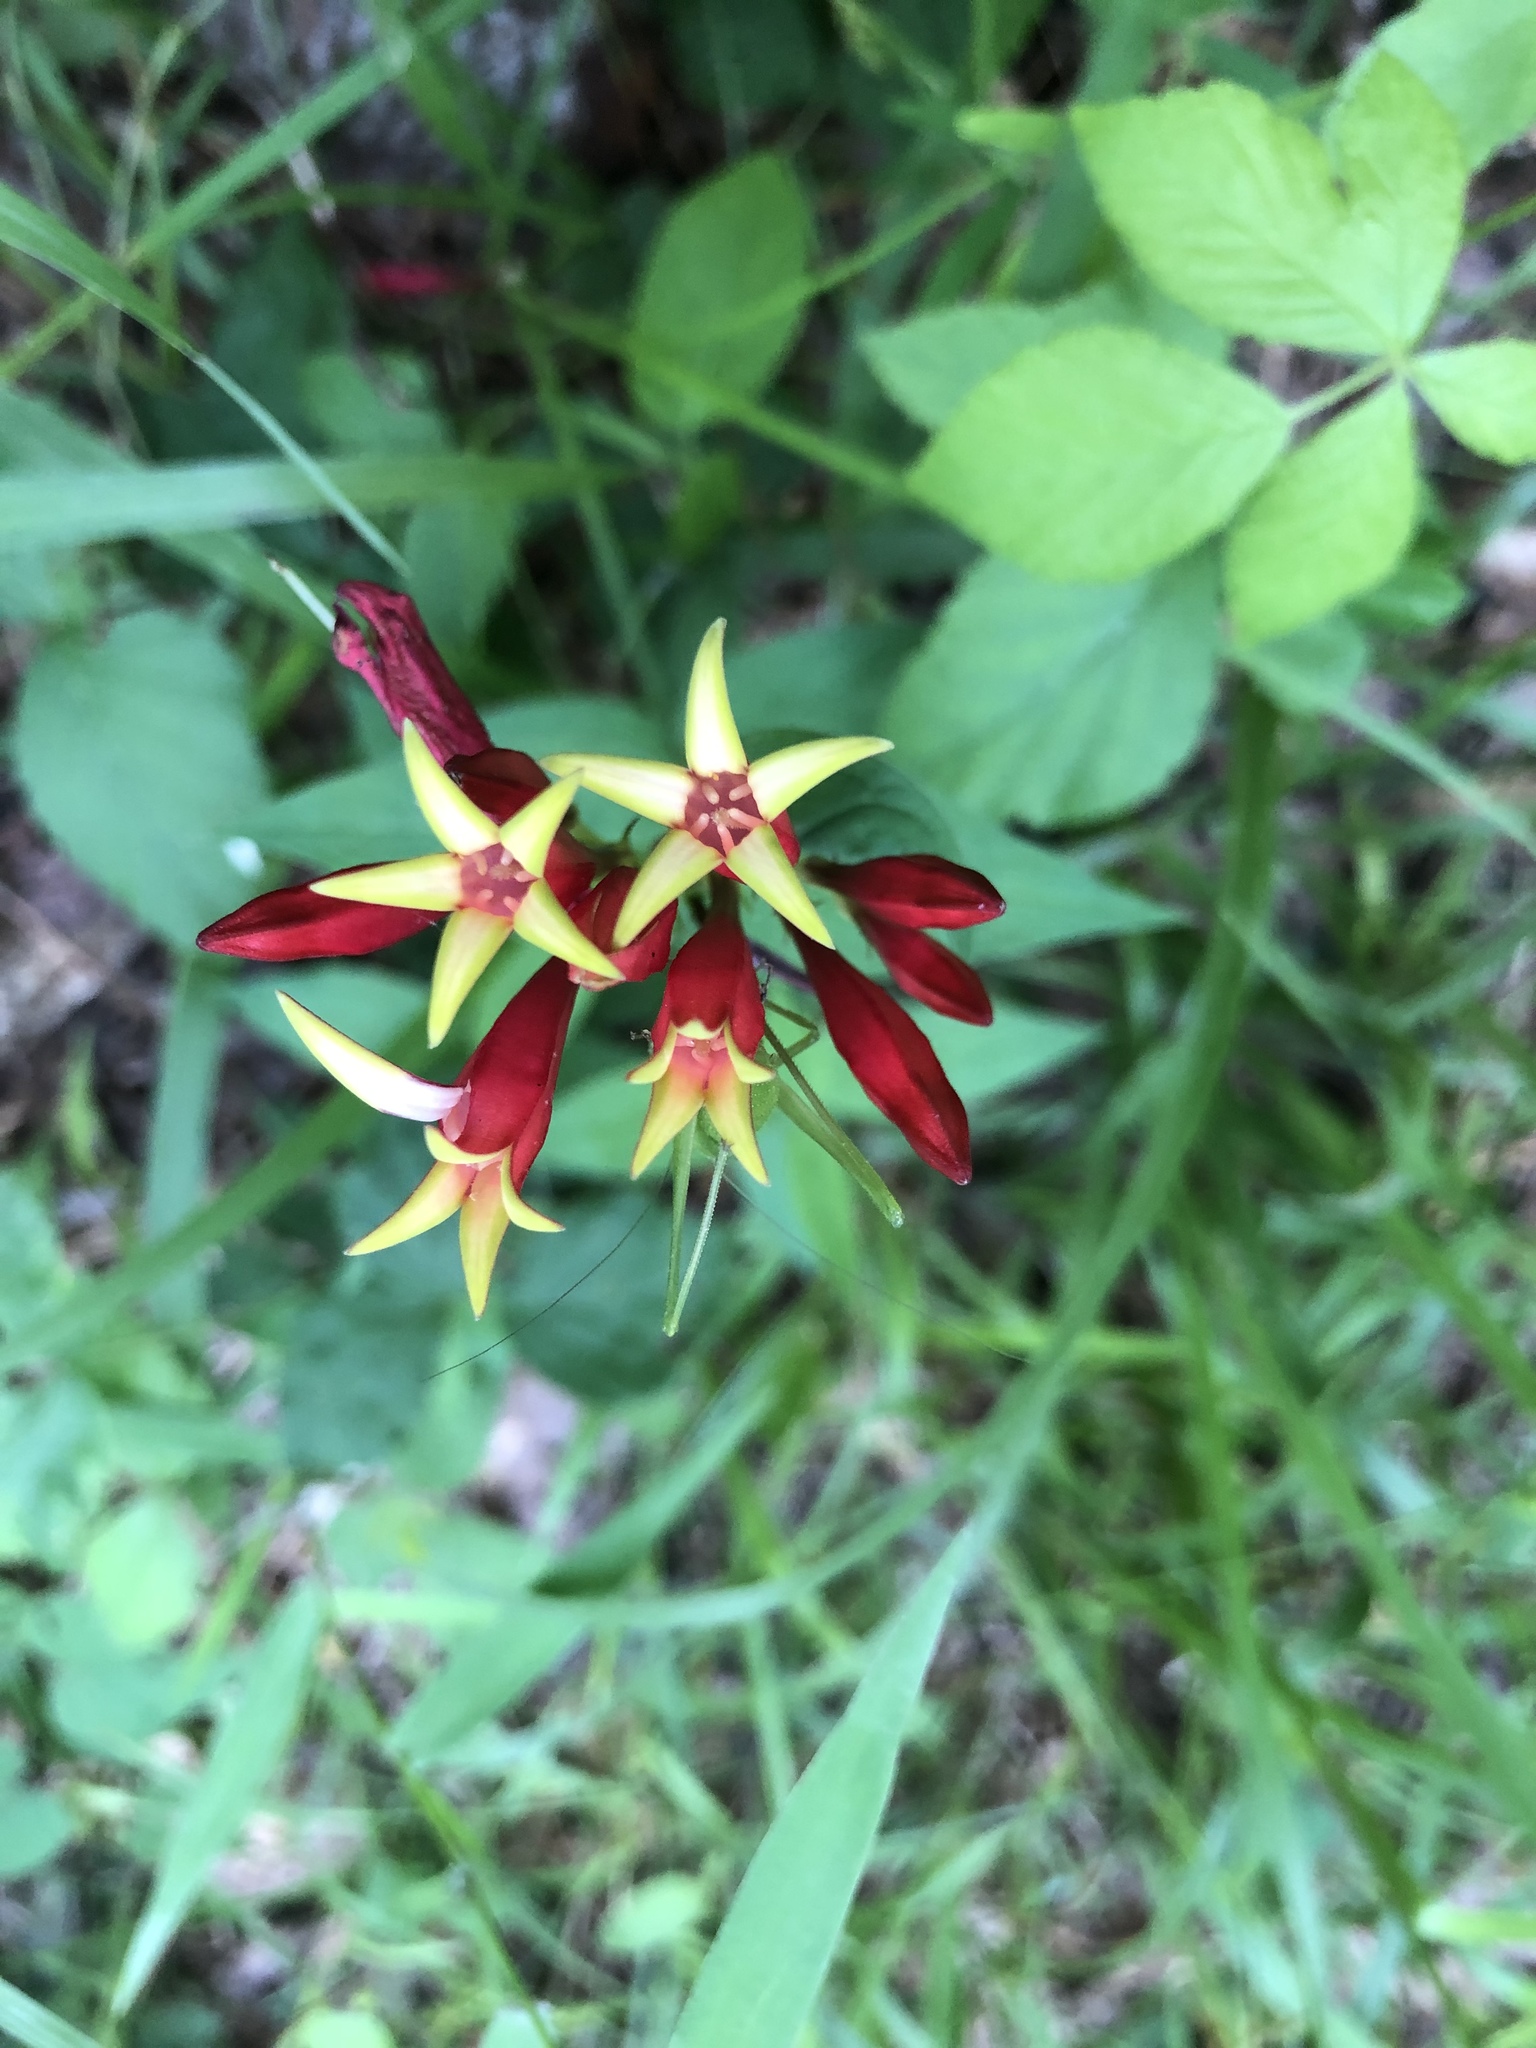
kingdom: Plantae
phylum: Tracheophyta
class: Magnoliopsida
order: Gentianales
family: Loganiaceae
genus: Spigelia
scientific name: Spigelia marilandica
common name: Indian-pink
